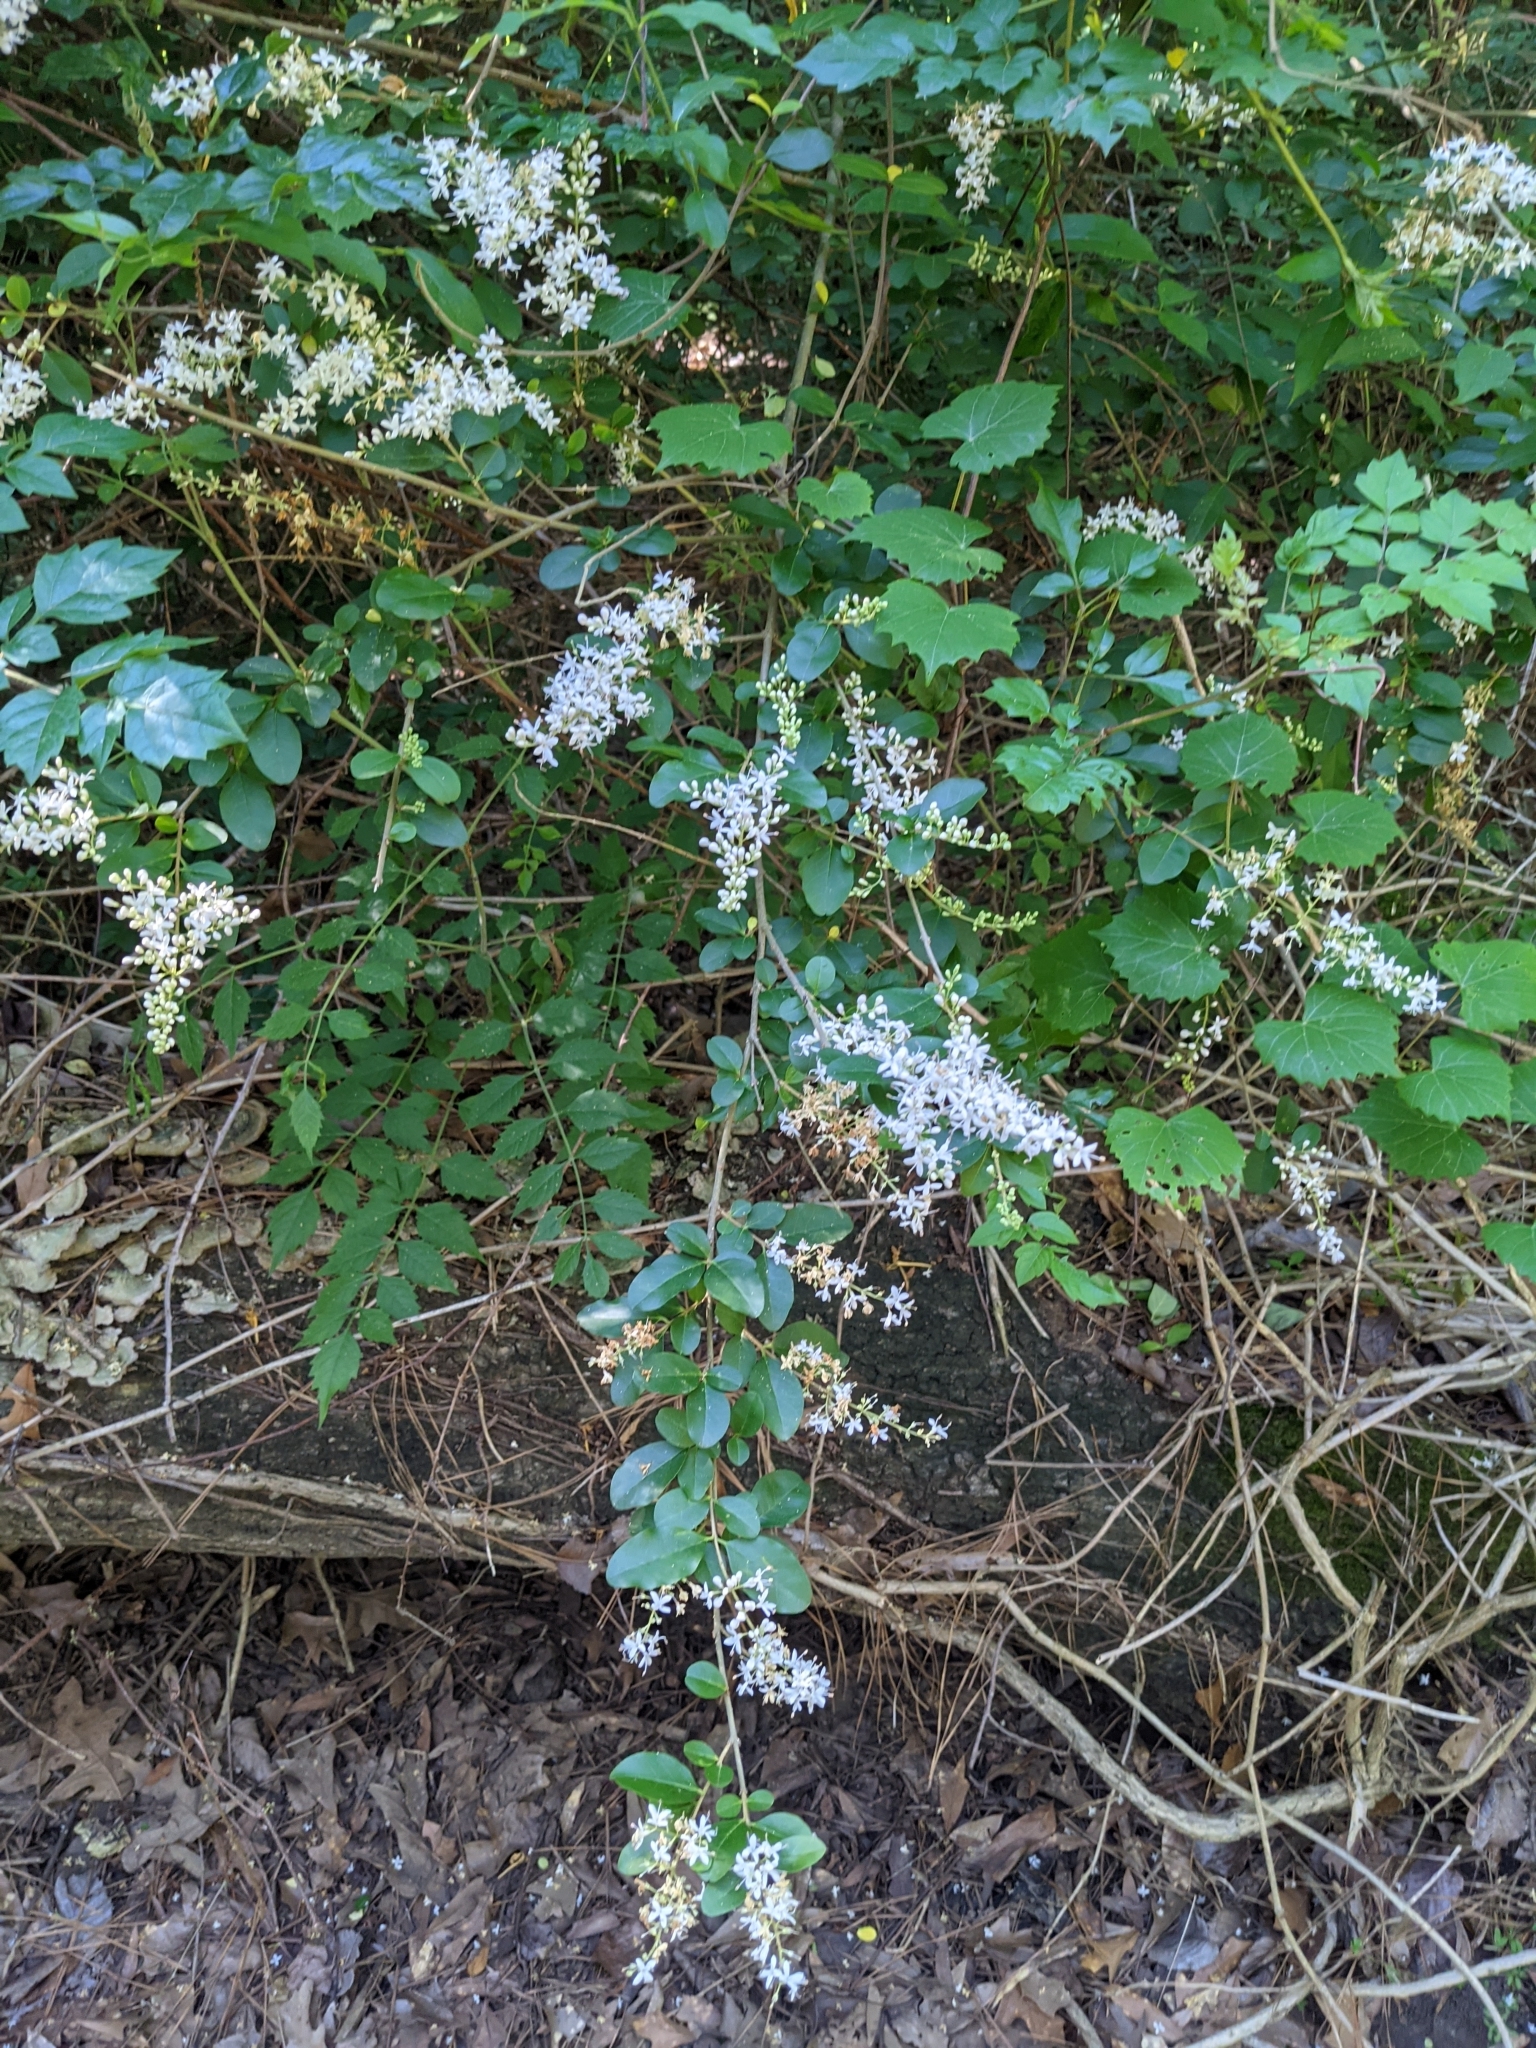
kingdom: Plantae
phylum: Tracheophyta
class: Magnoliopsida
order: Lamiales
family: Oleaceae
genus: Ligustrum
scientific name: Ligustrum sinense
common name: Chinese privet
